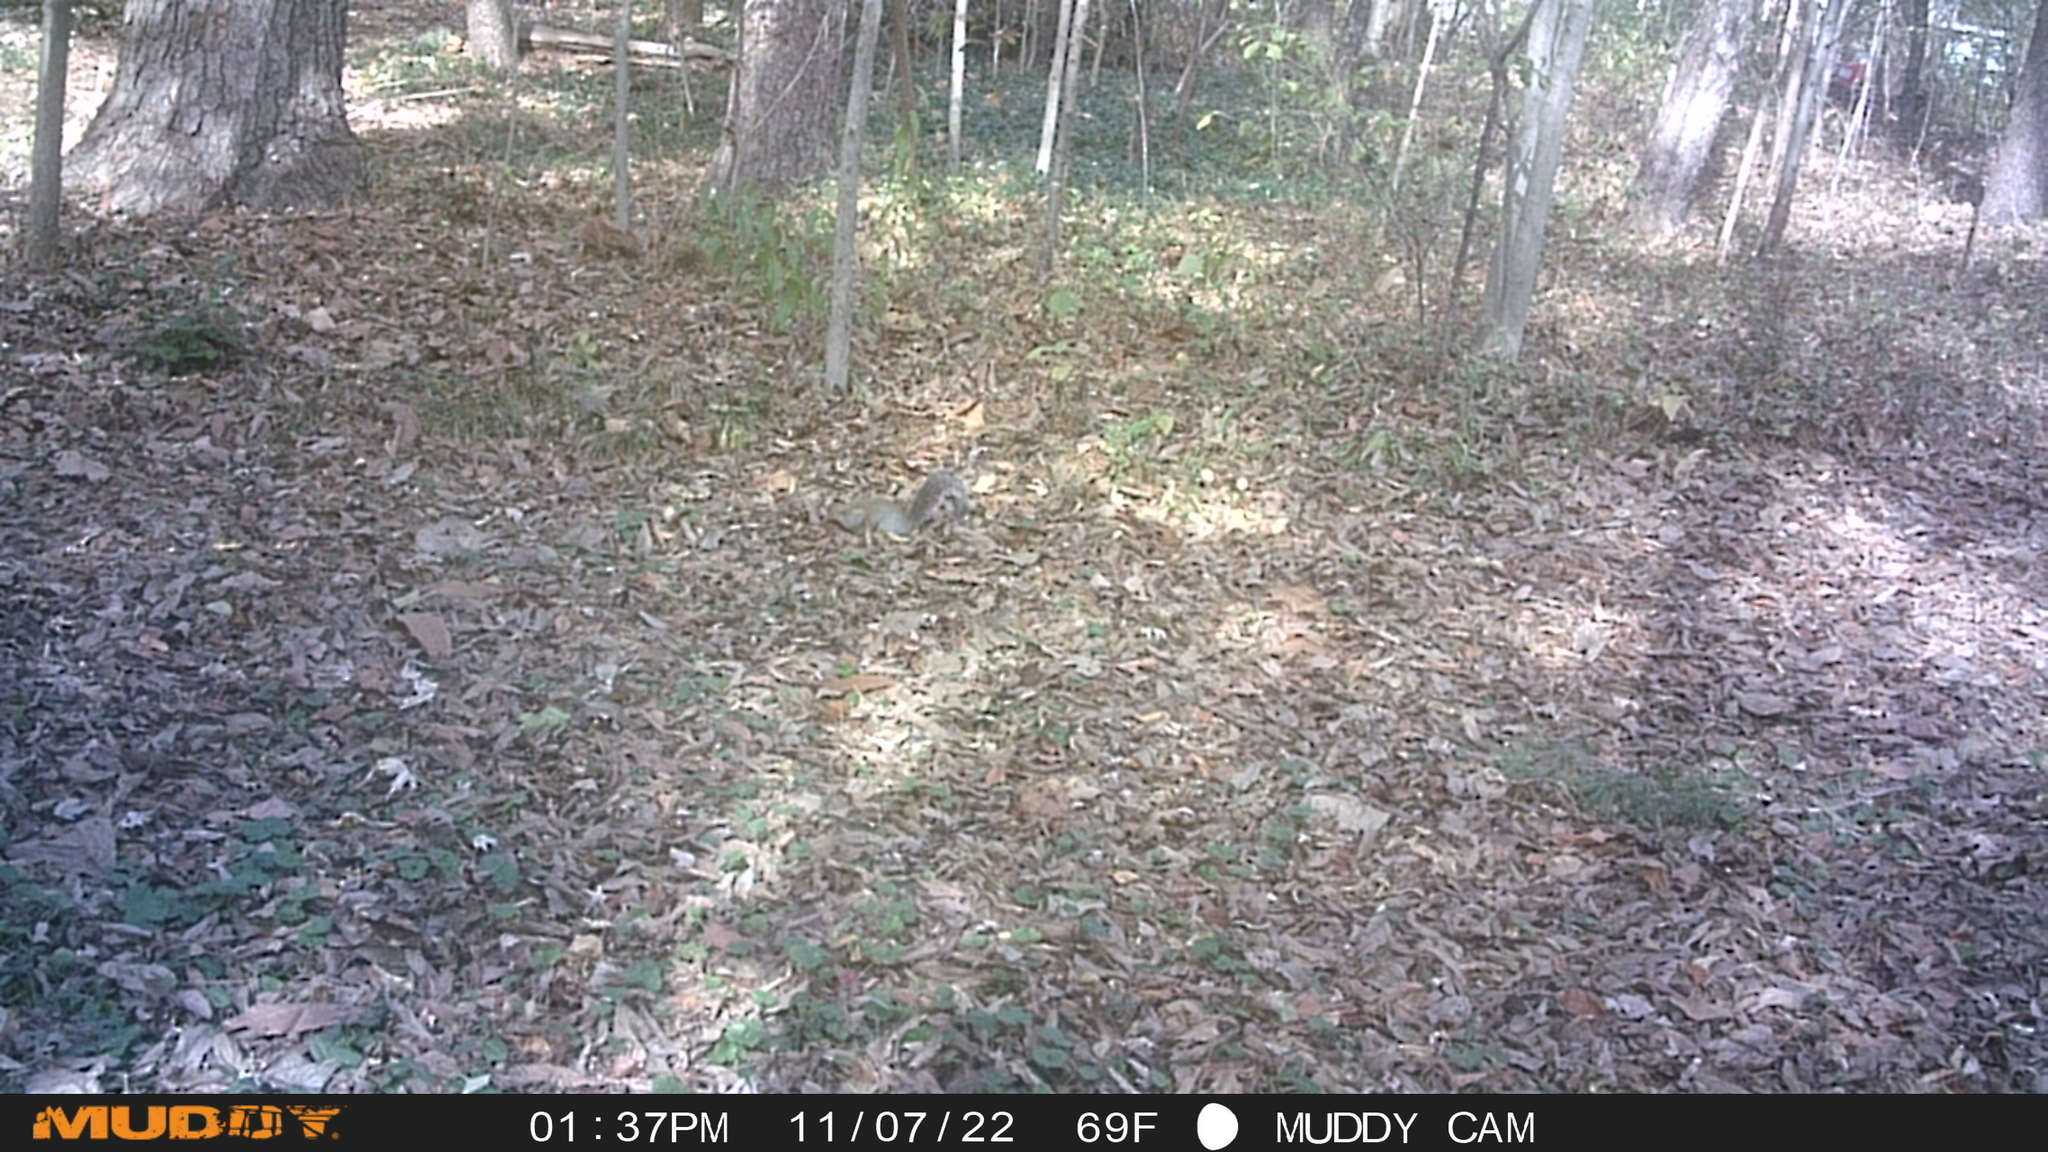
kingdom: Animalia
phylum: Chordata
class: Mammalia
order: Rodentia
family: Sciuridae
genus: Sciurus
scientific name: Sciurus carolinensis
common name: Eastern gray squirrel
